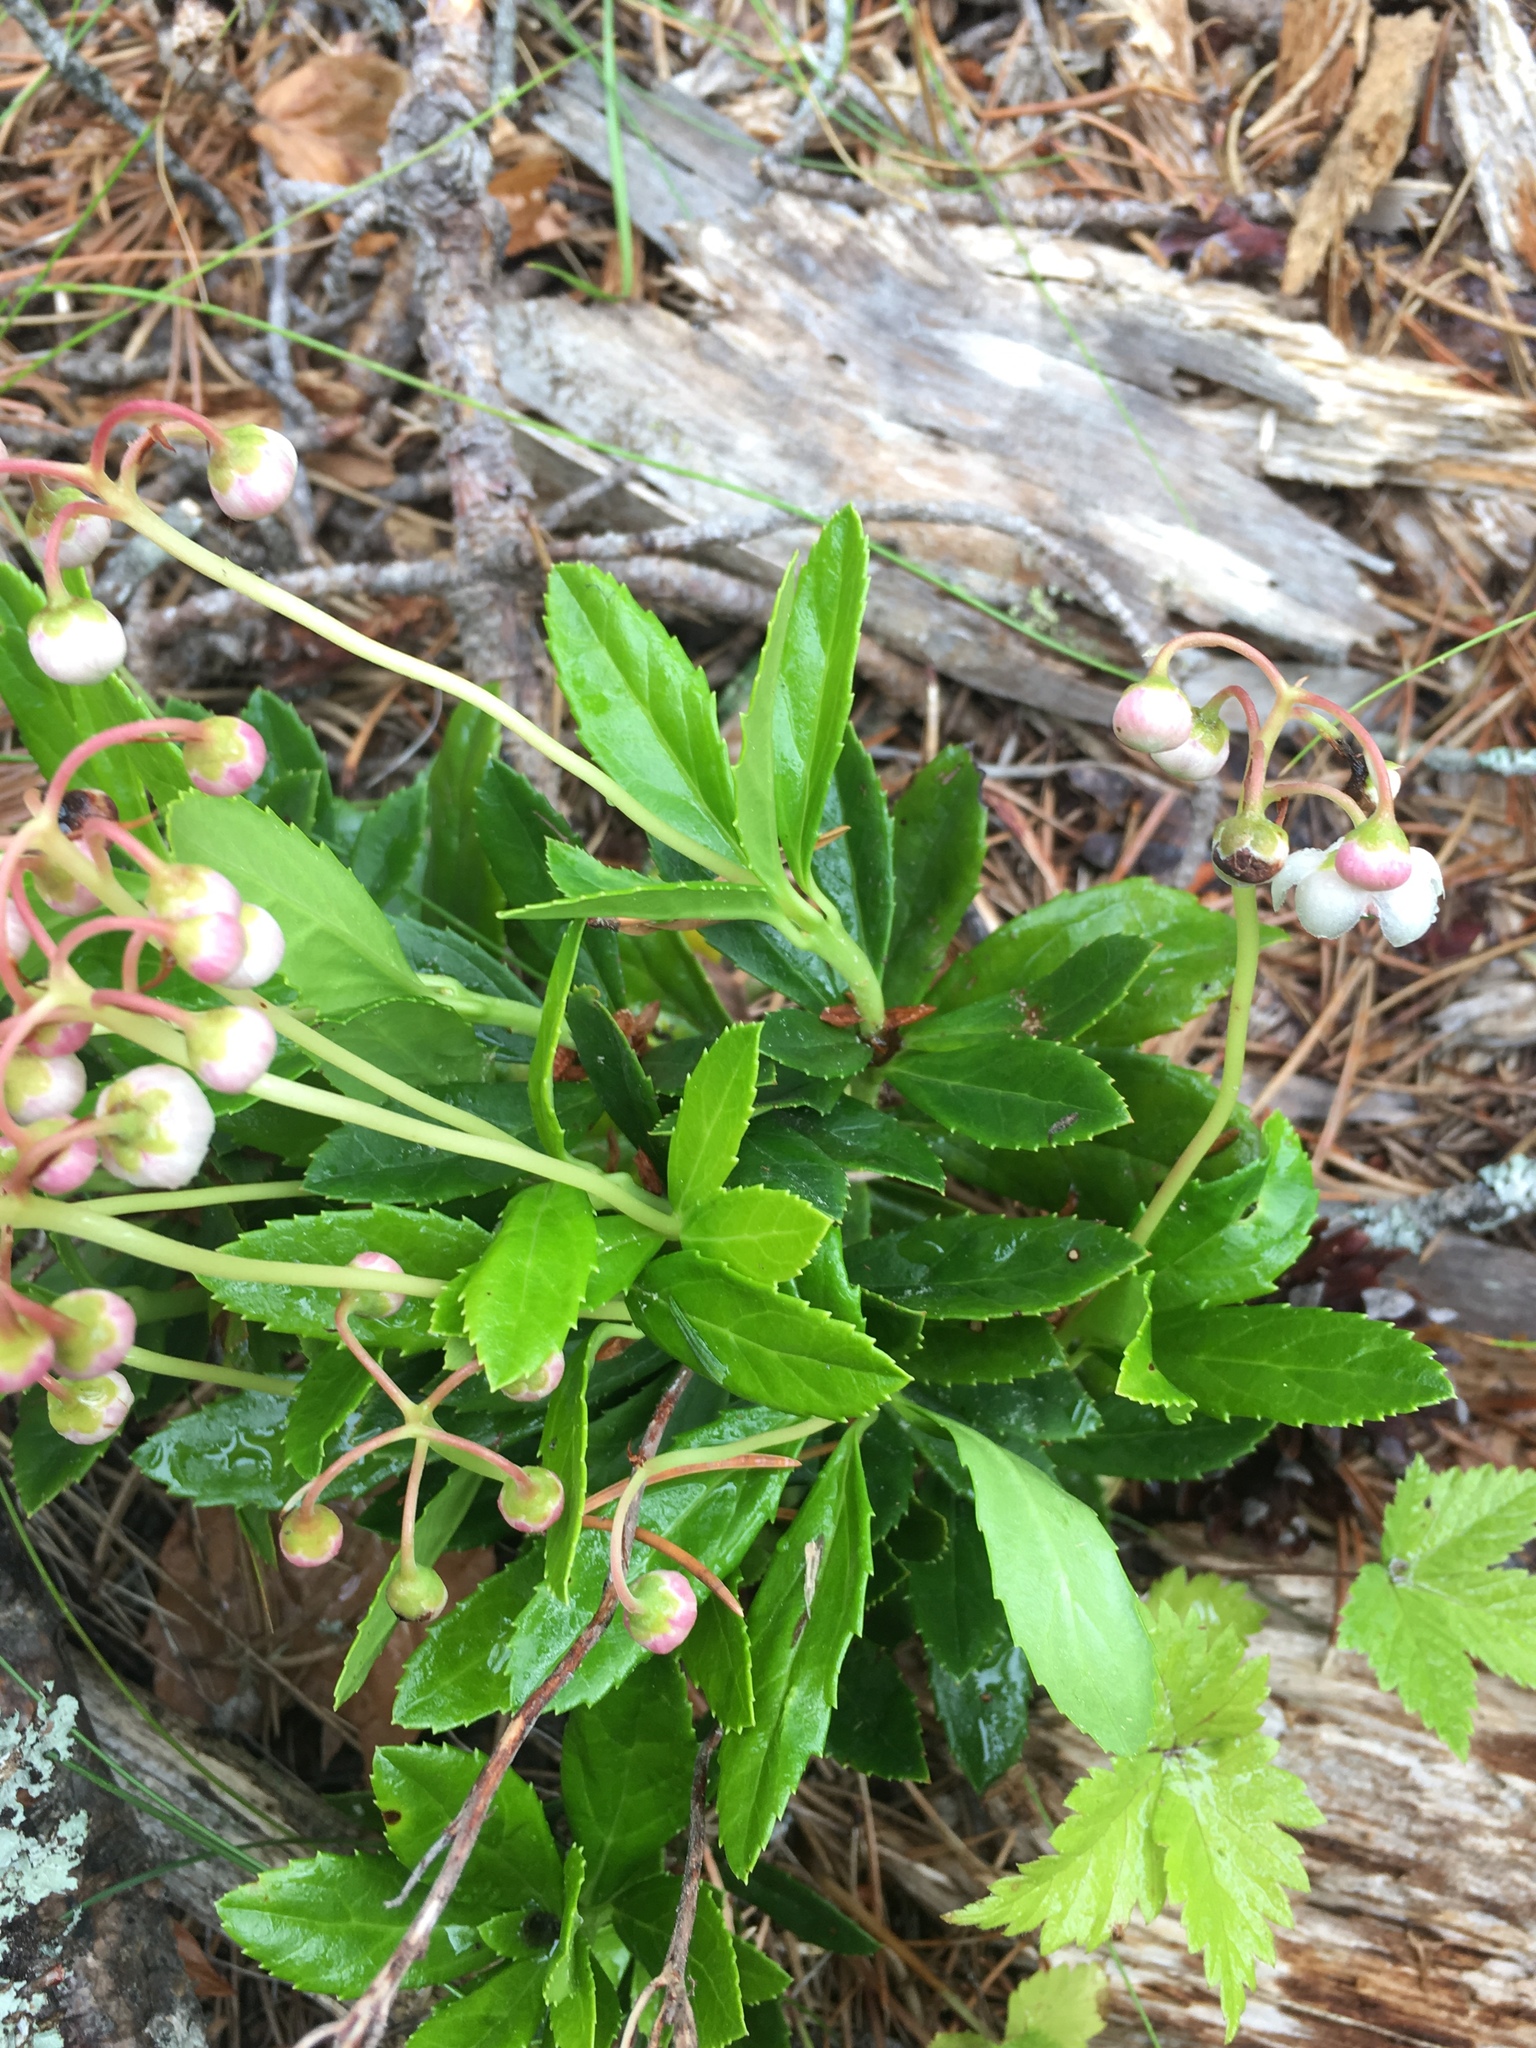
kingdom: Plantae
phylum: Tracheophyta
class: Magnoliopsida
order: Ericales
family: Ericaceae
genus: Chimaphila
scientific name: Chimaphila umbellata
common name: Pipsissewa
